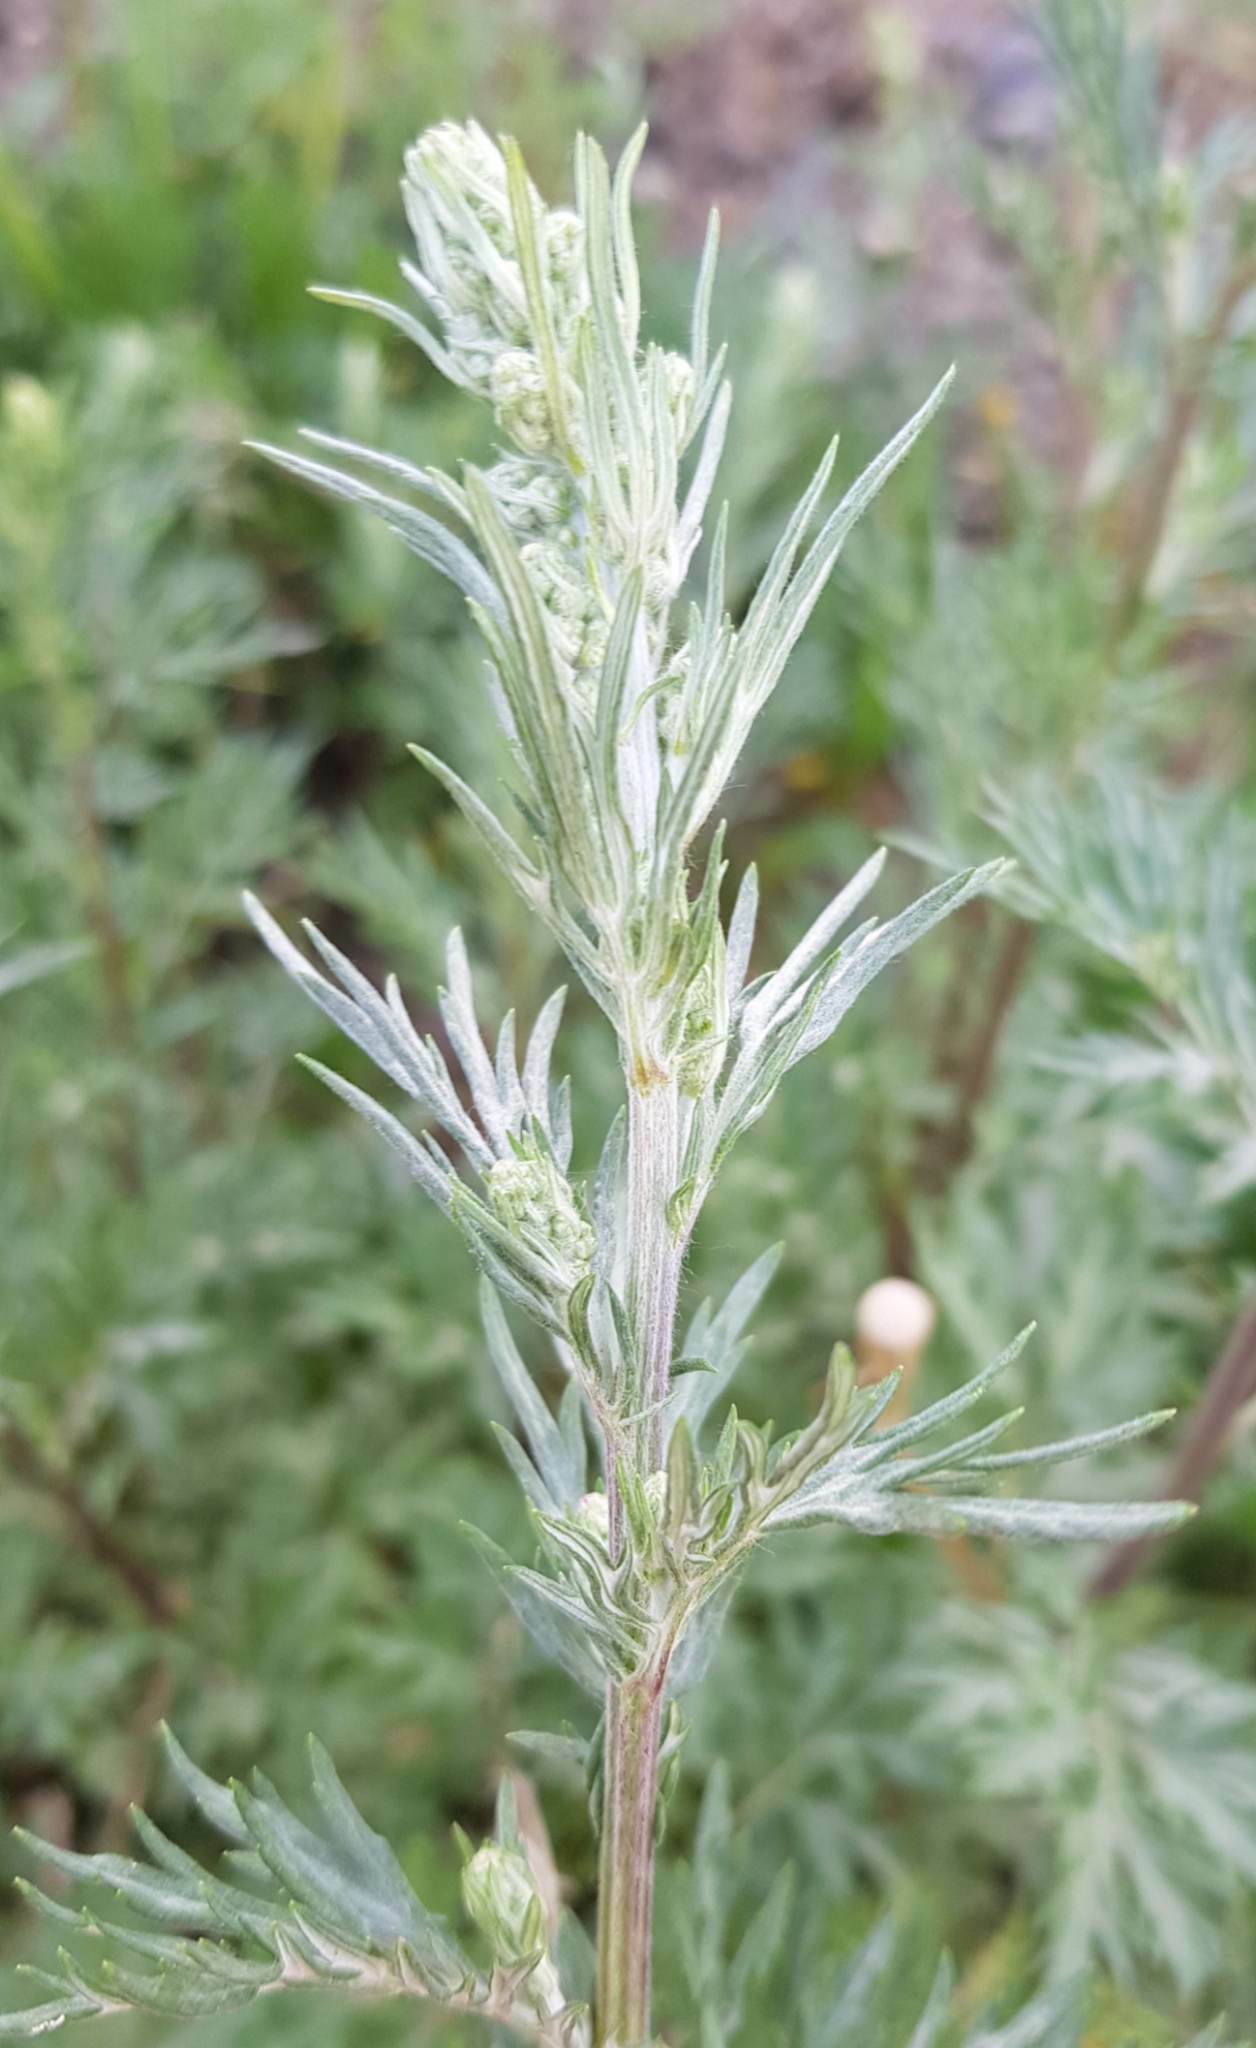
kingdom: Plantae
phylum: Tracheophyta
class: Magnoliopsida
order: Asterales
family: Asteraceae
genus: Artemisia
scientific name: Artemisia sieversiana
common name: Sieversian wormwood
